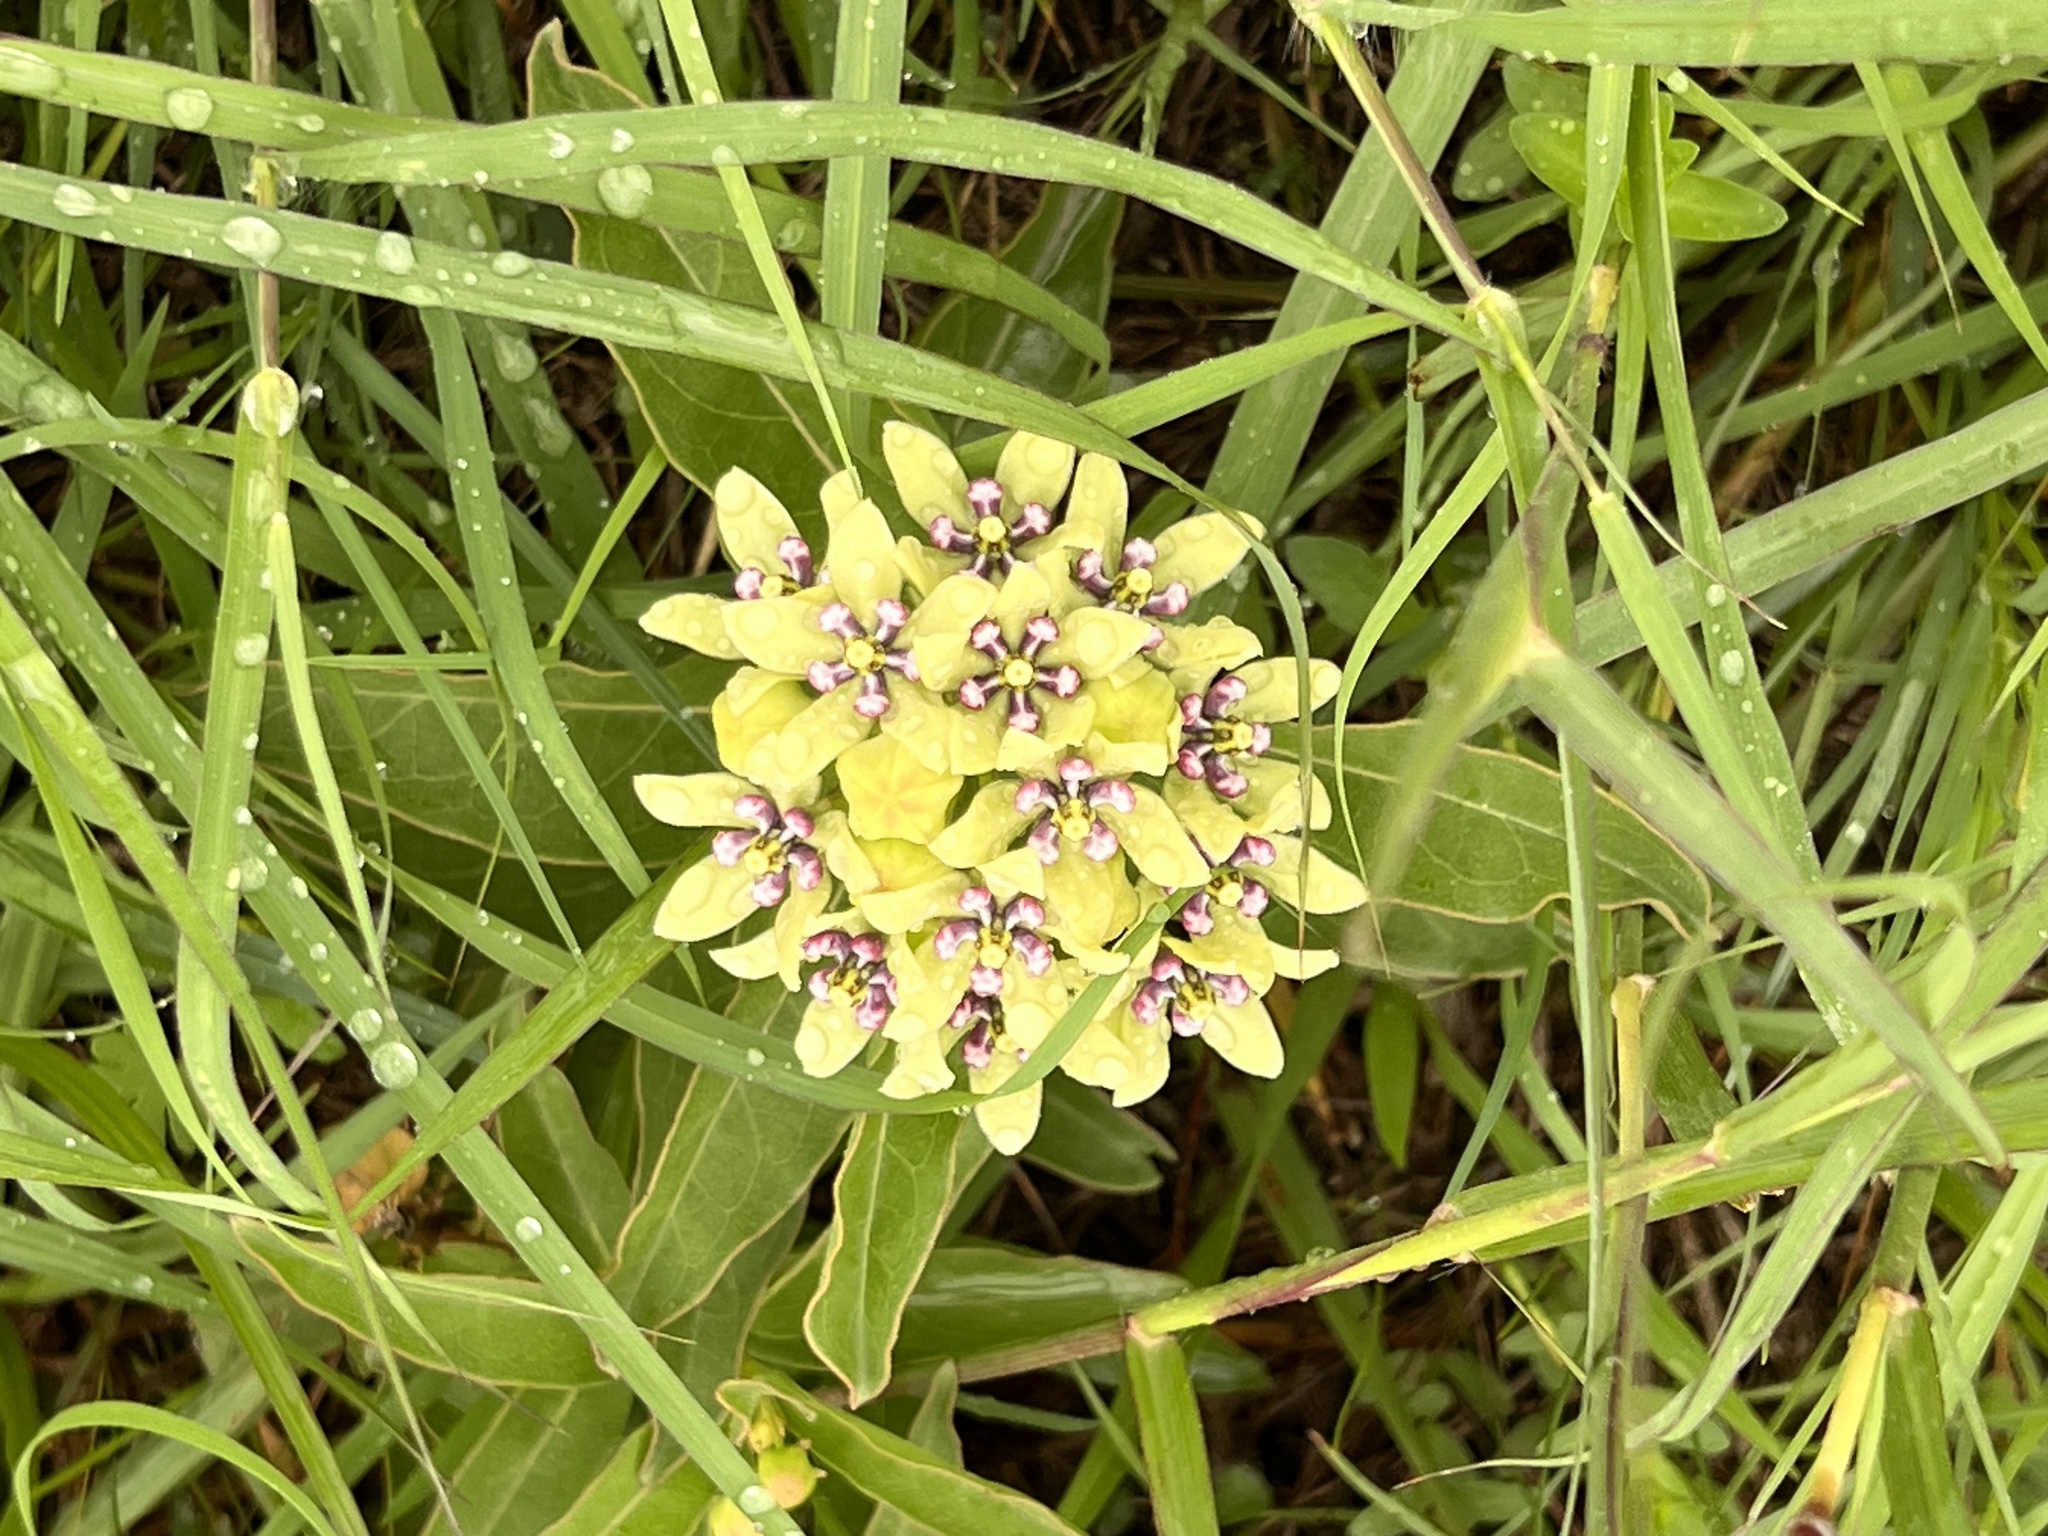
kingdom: Plantae
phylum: Tracheophyta
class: Magnoliopsida
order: Gentianales
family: Apocynaceae
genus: Asclepias
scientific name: Asclepias viridis
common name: Antelope-horns
